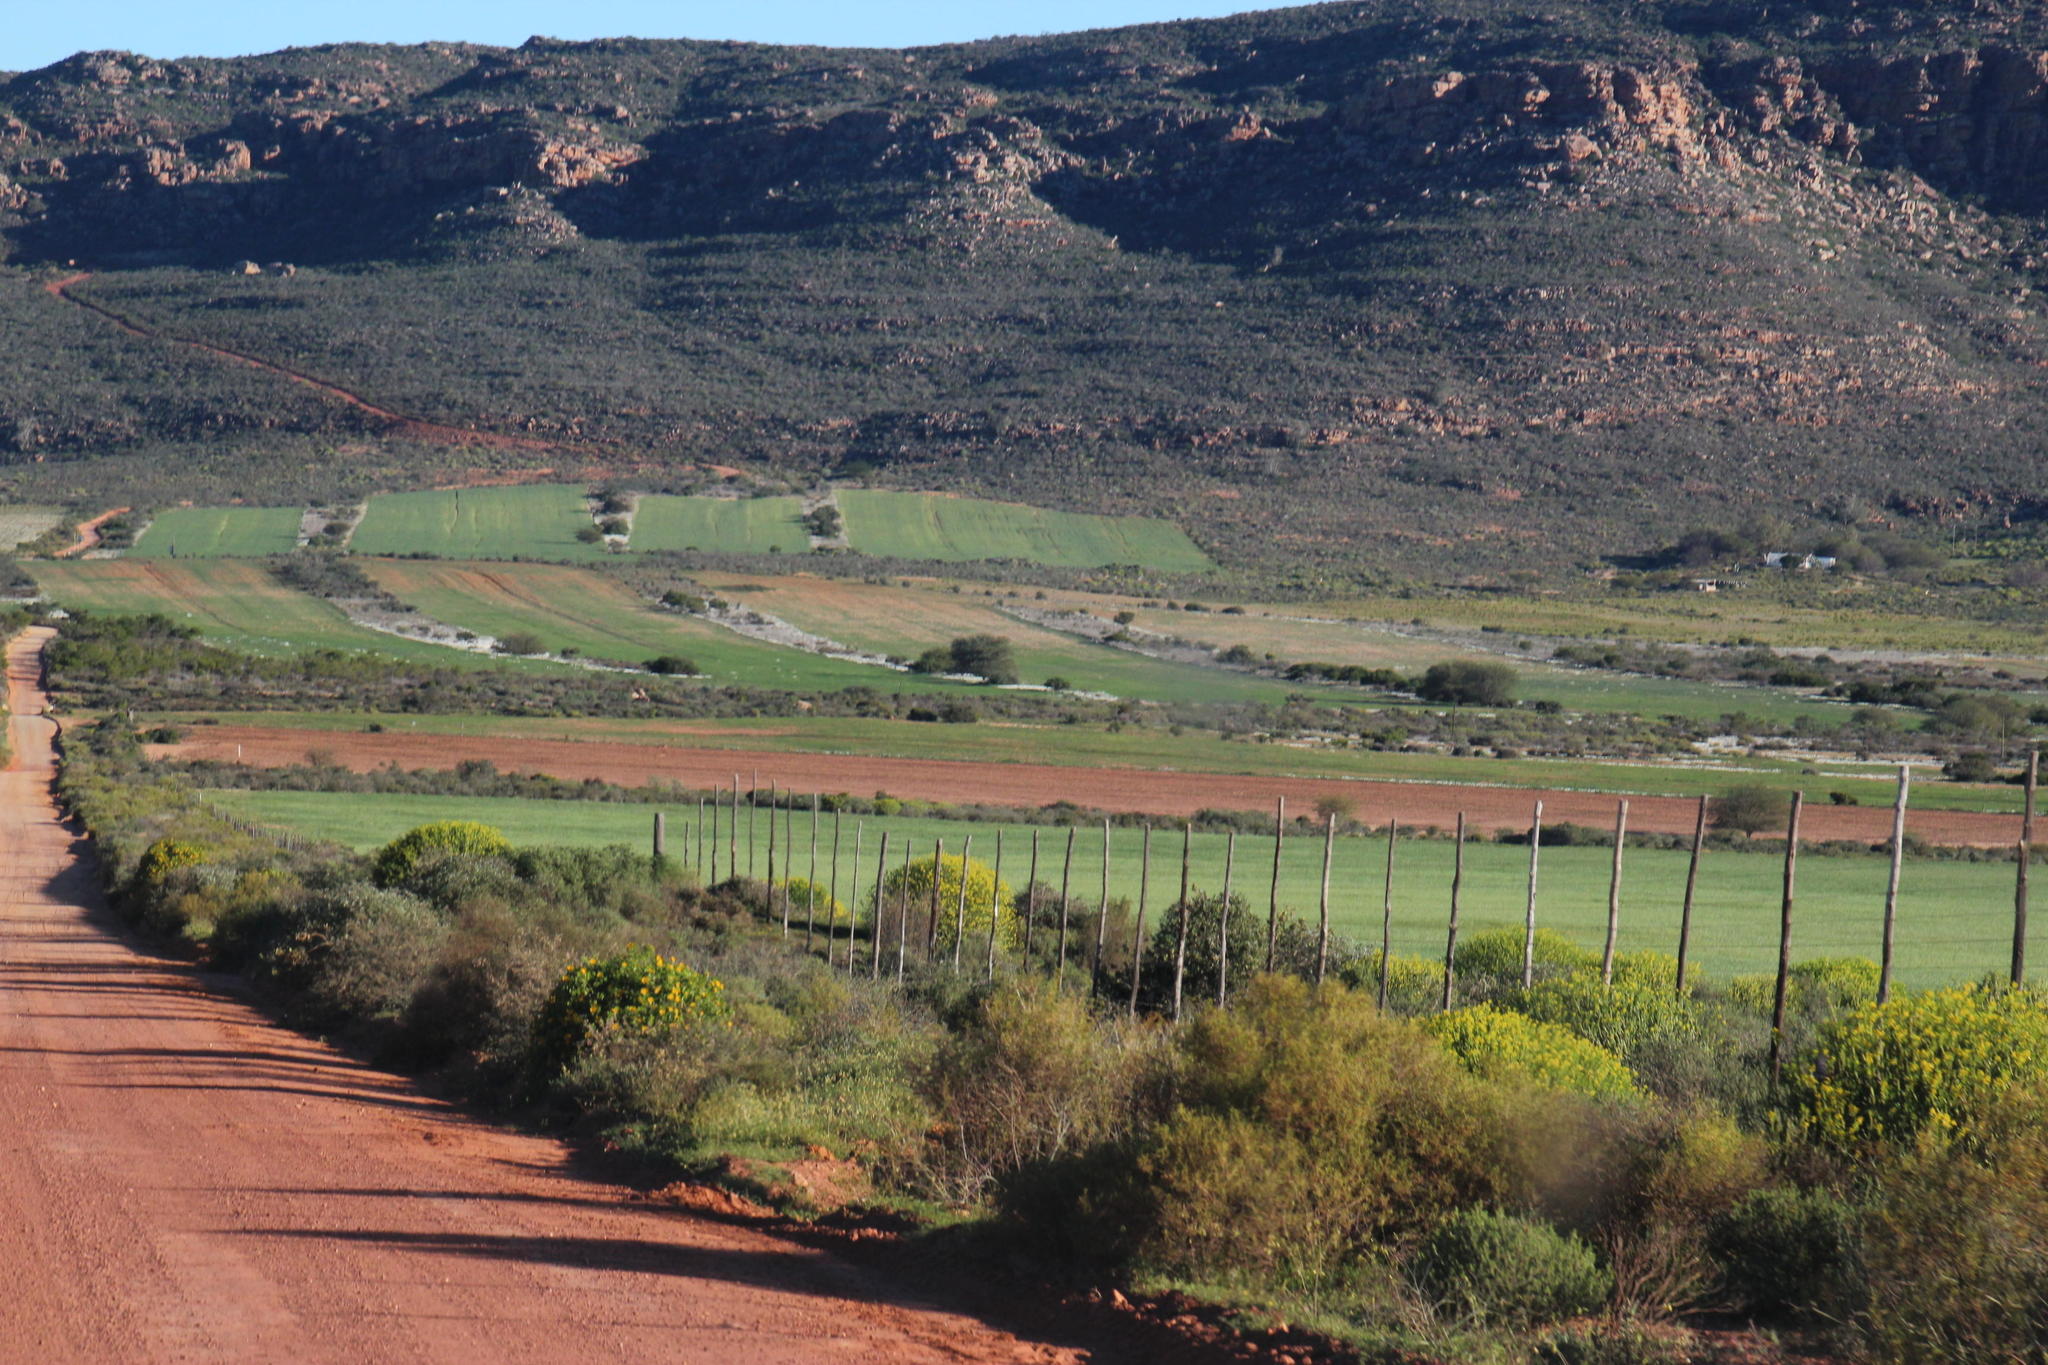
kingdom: Plantae
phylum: Tracheophyta
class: Magnoliopsida
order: Malpighiales
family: Euphorbiaceae
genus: Euphorbia
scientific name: Euphorbia mauritanica
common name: Jackal's-food
